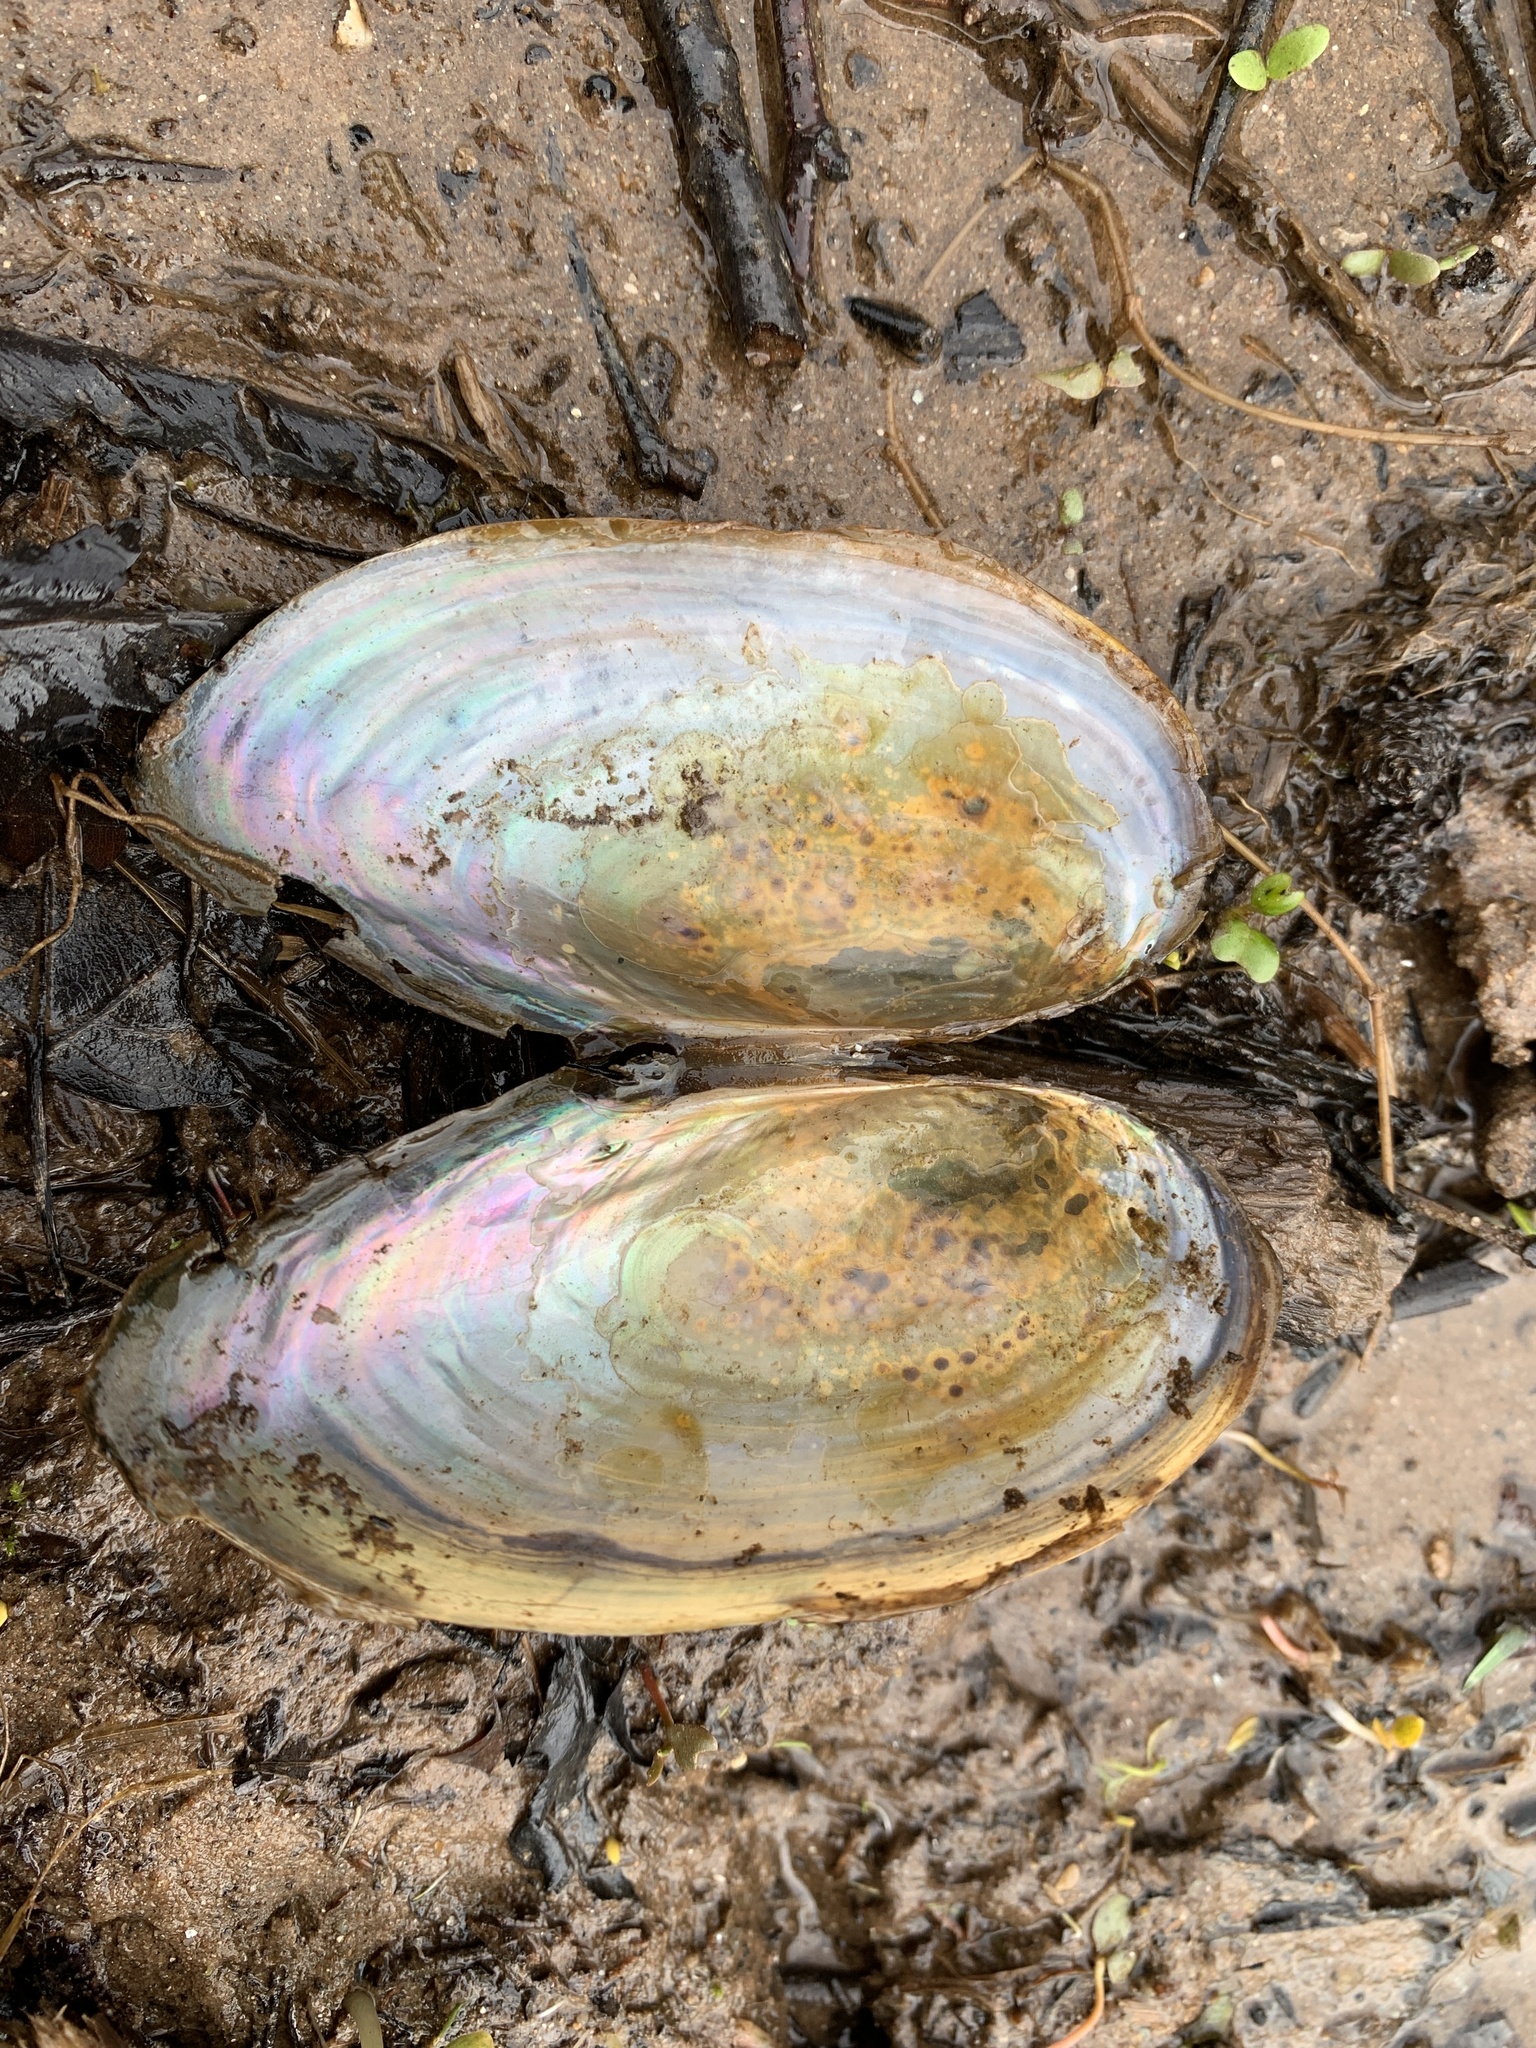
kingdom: Animalia
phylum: Mollusca
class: Bivalvia
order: Unionida
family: Unionidae
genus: Pyganodon
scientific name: Pyganodon cataracta
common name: Eastern floater
